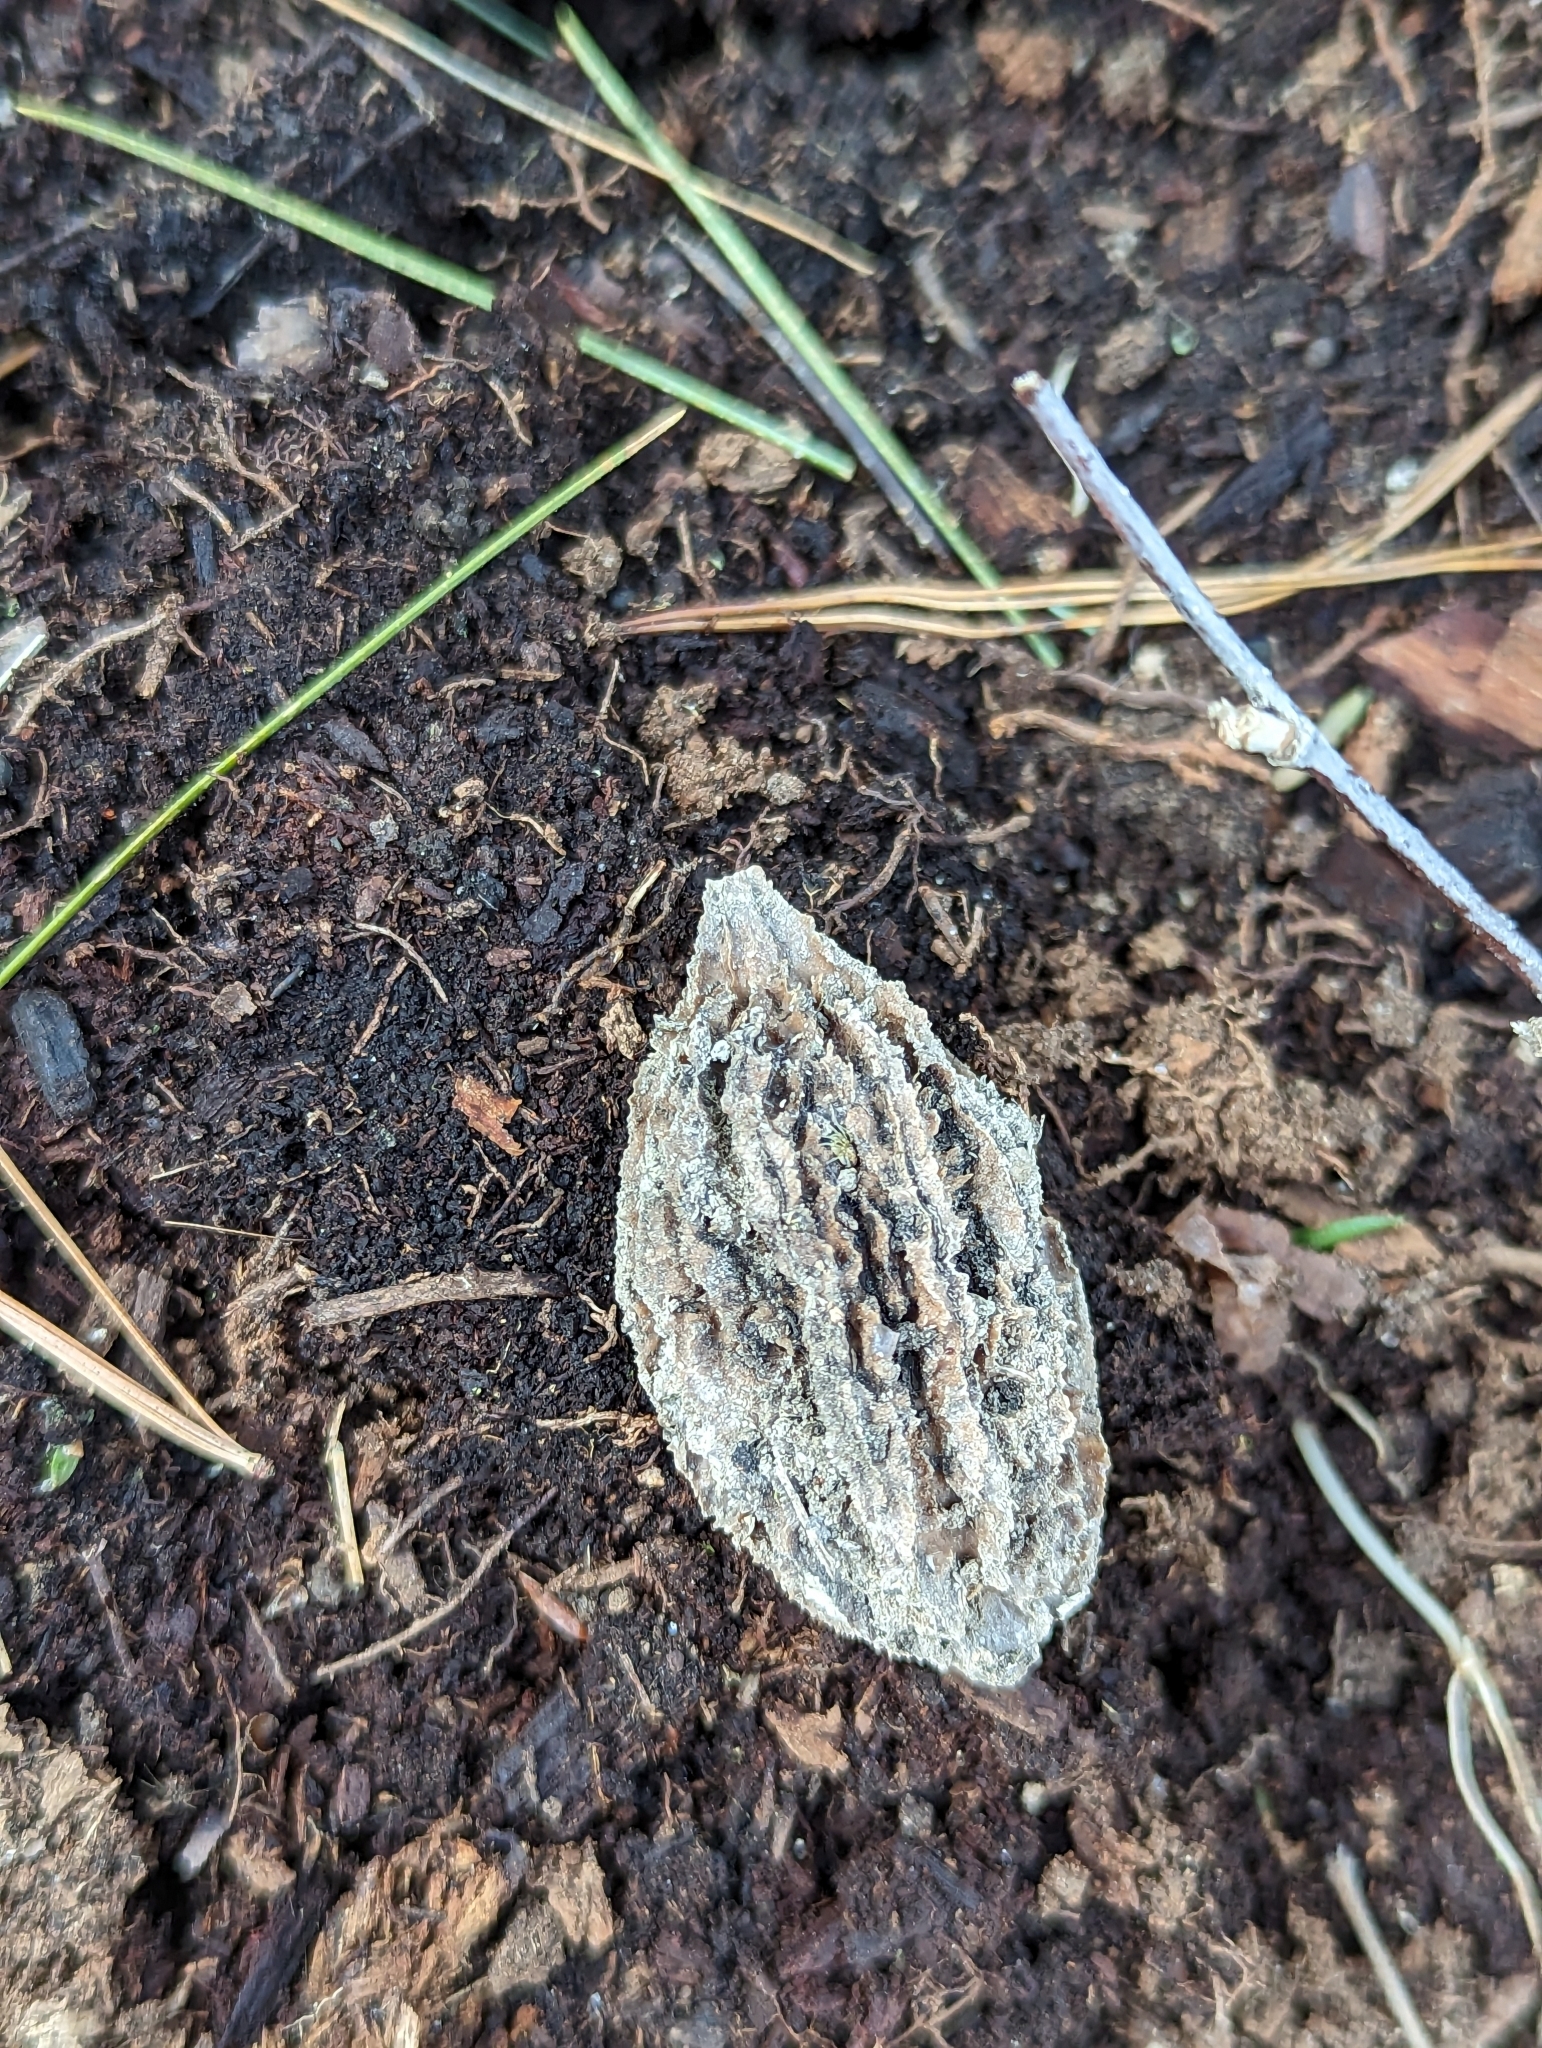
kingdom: Plantae
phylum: Tracheophyta
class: Magnoliopsida
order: Fagales
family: Juglandaceae
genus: Juglans
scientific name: Juglans cinerea
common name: Butternut
